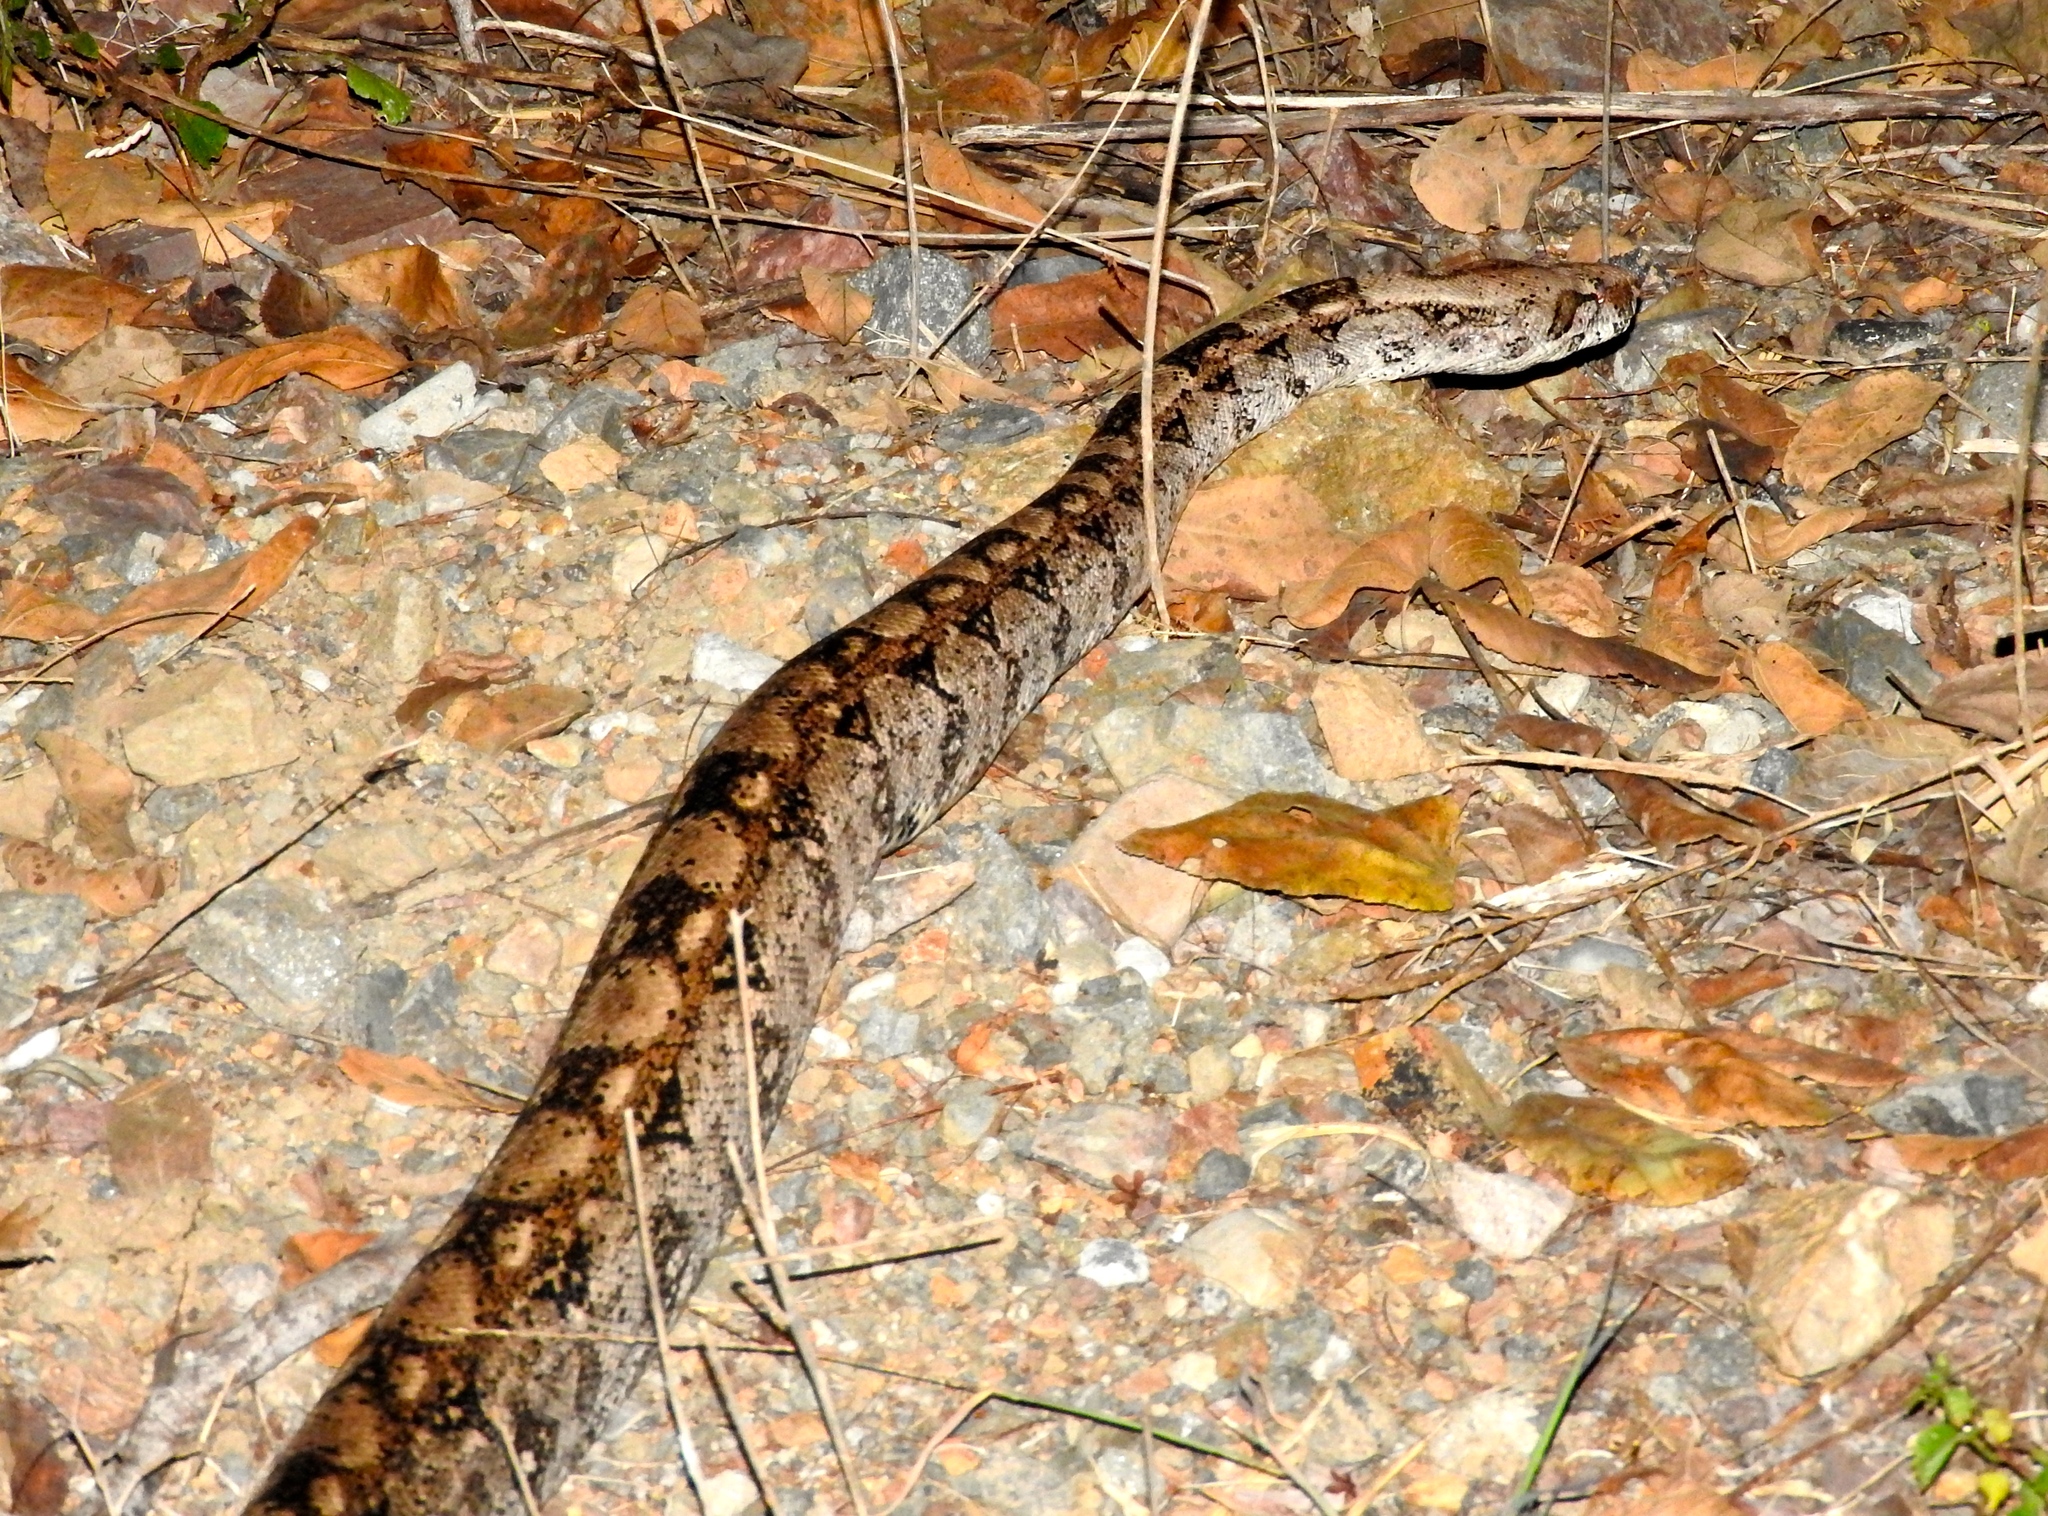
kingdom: Animalia
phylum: Chordata
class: Squamata
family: Boidae
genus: Boa
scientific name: Boa
